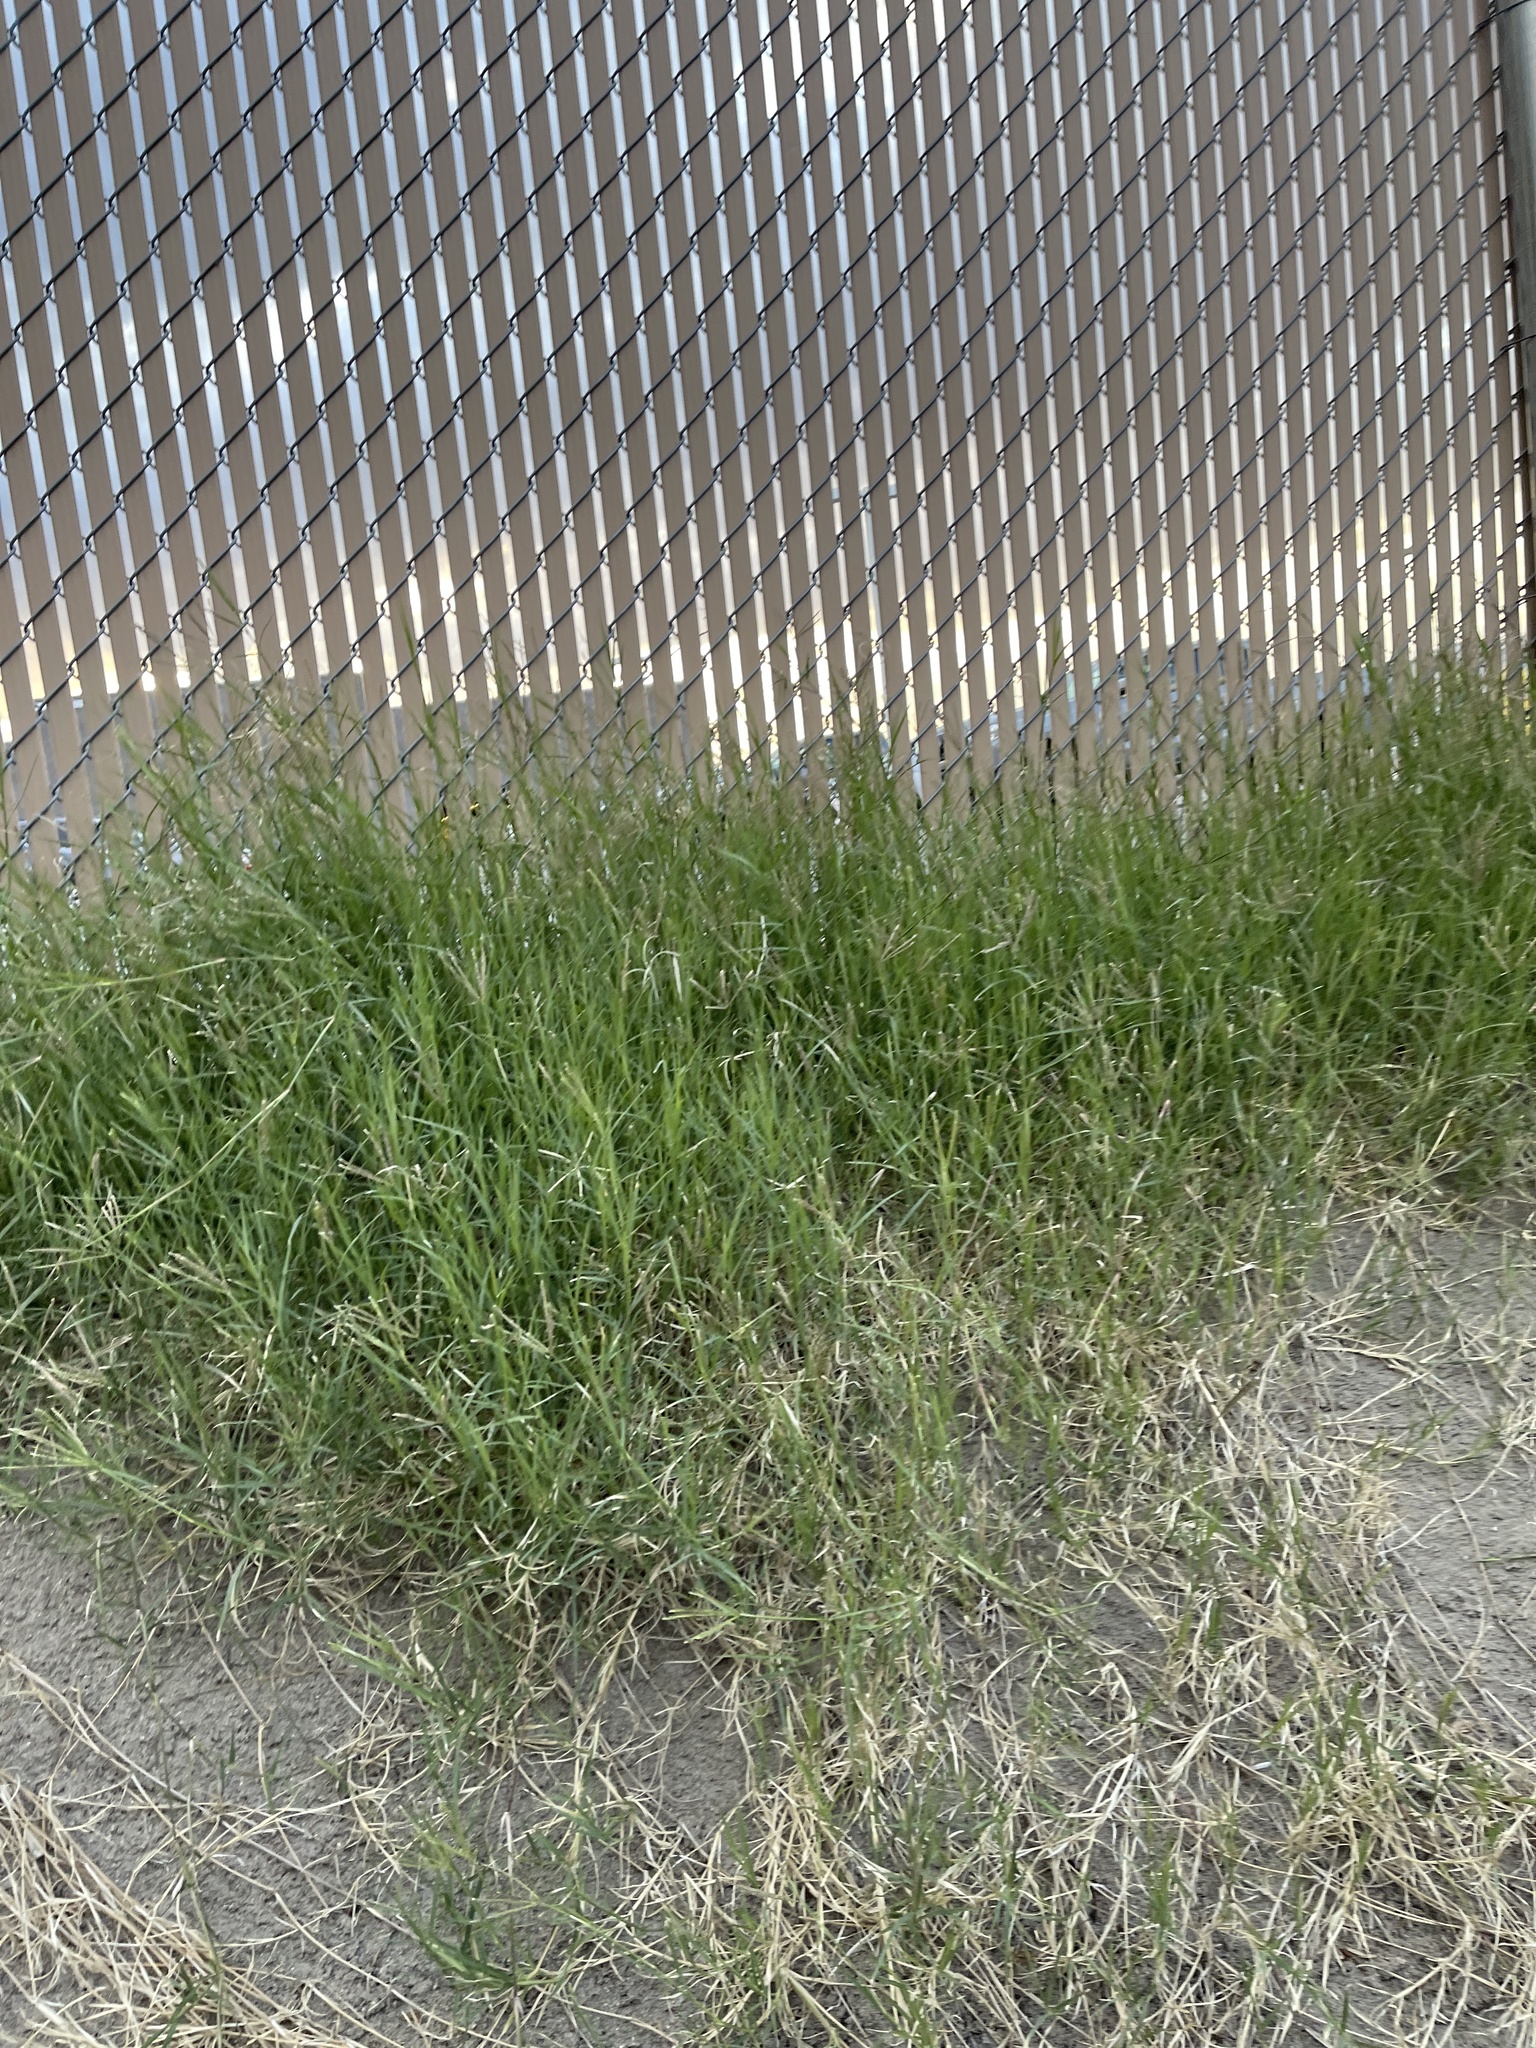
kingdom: Plantae
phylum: Tracheophyta
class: Liliopsida
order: Poales
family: Poaceae
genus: Cynodon
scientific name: Cynodon dactylon
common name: Bermuda grass
